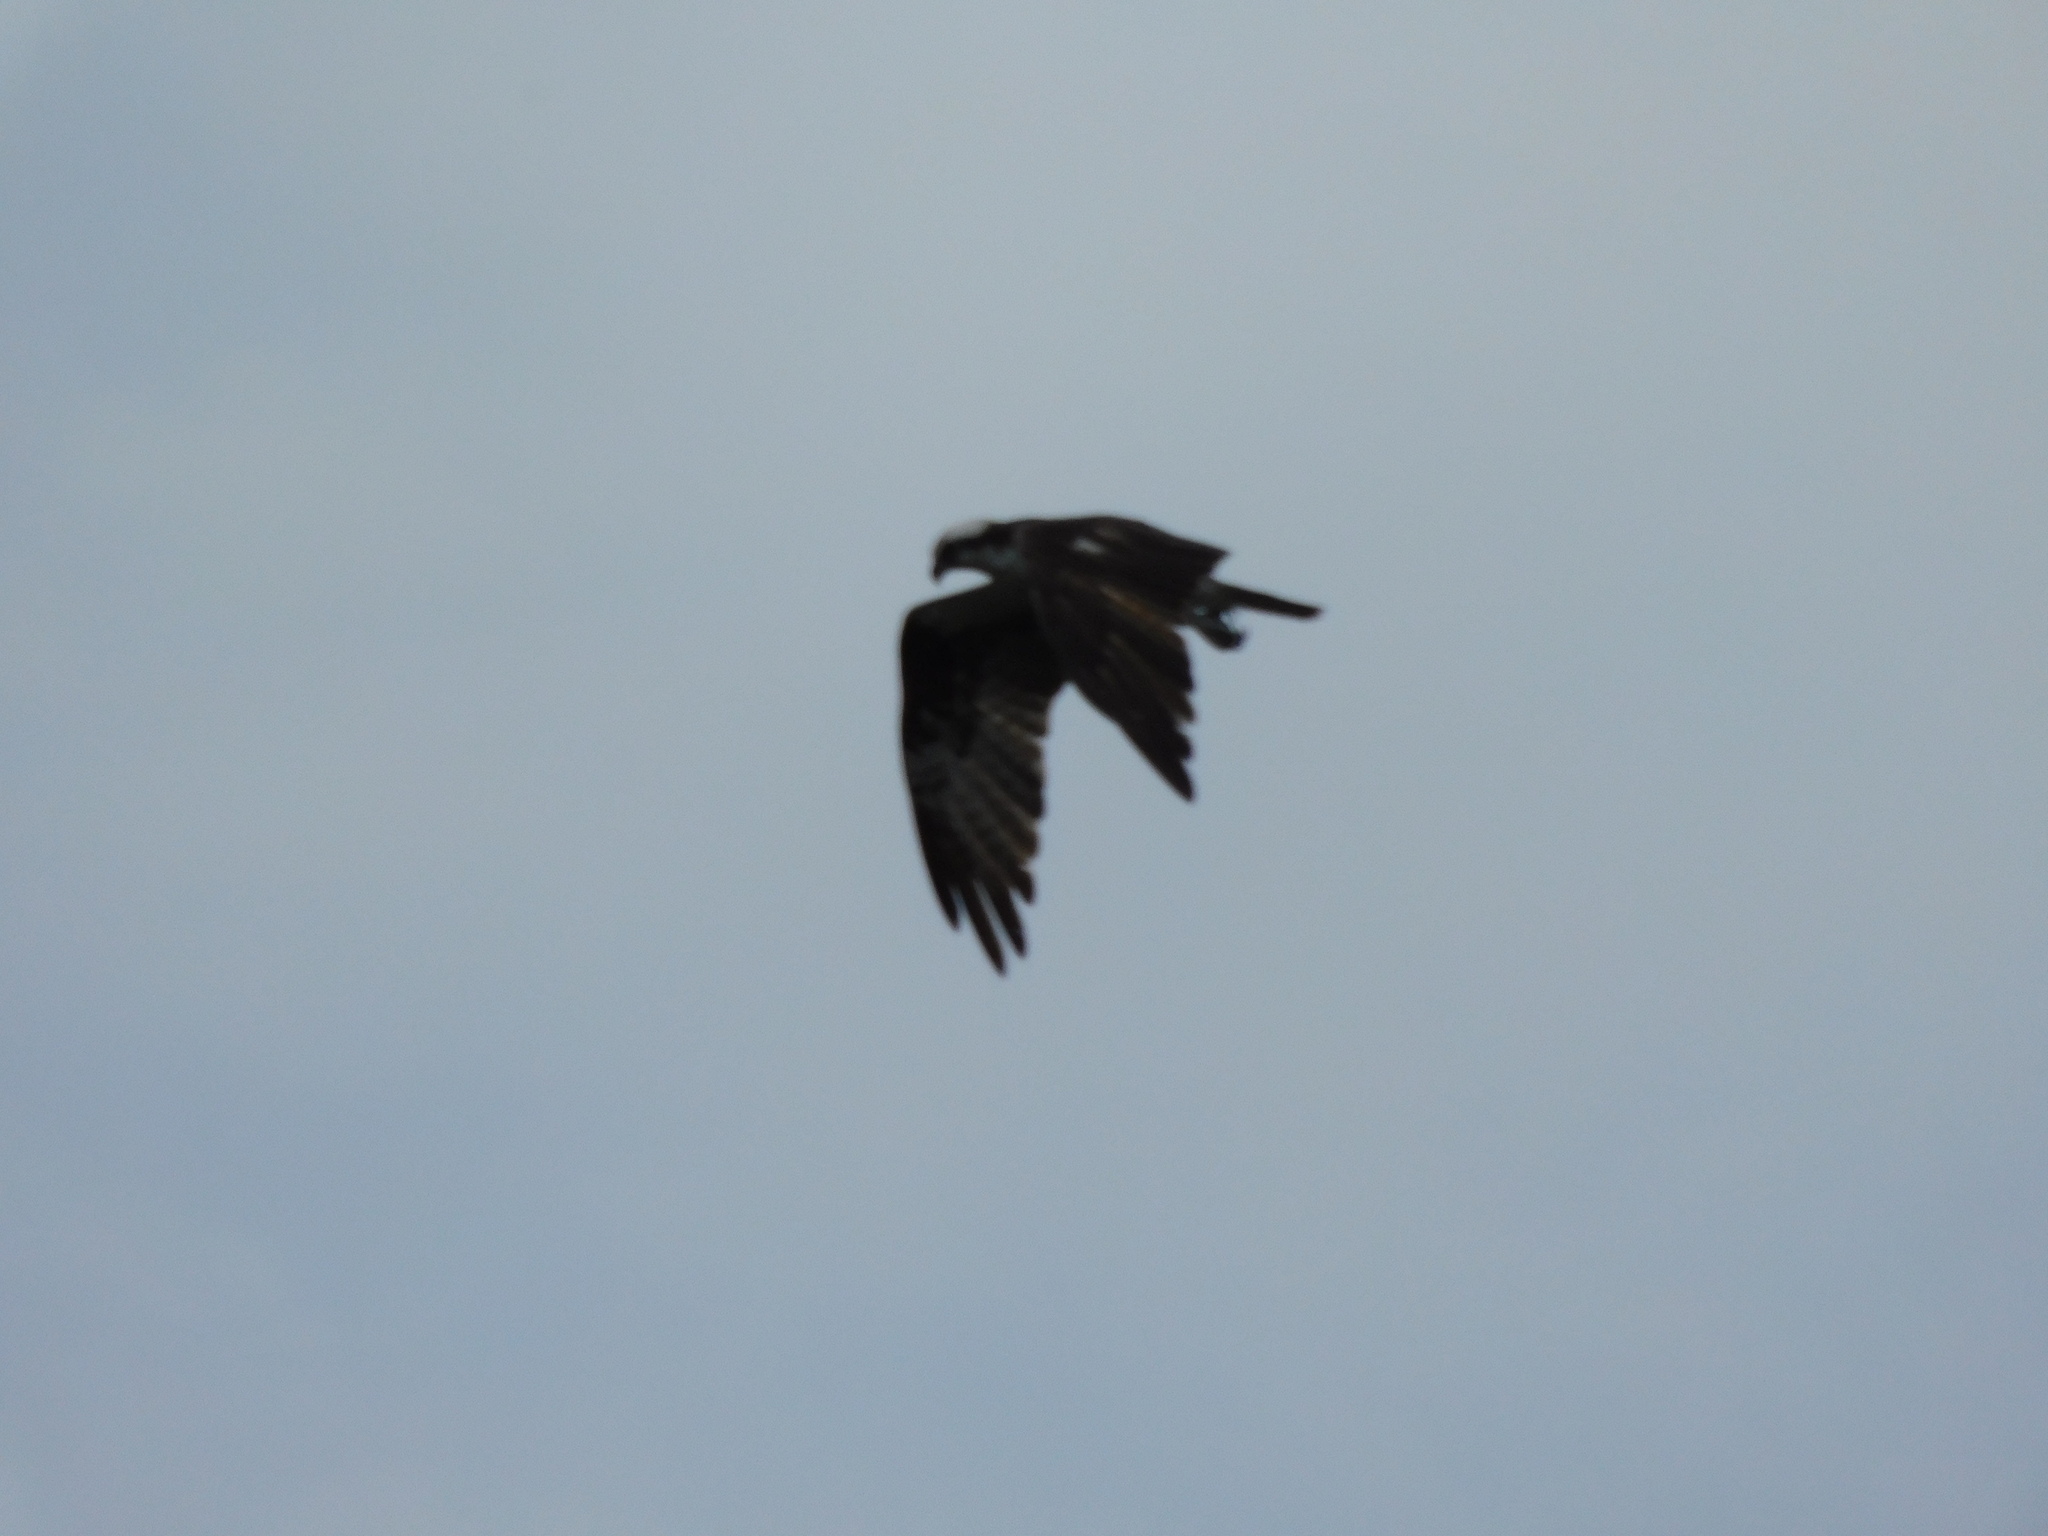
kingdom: Animalia
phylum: Chordata
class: Aves
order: Accipitriformes
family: Pandionidae
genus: Pandion
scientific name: Pandion haliaetus
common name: Osprey
